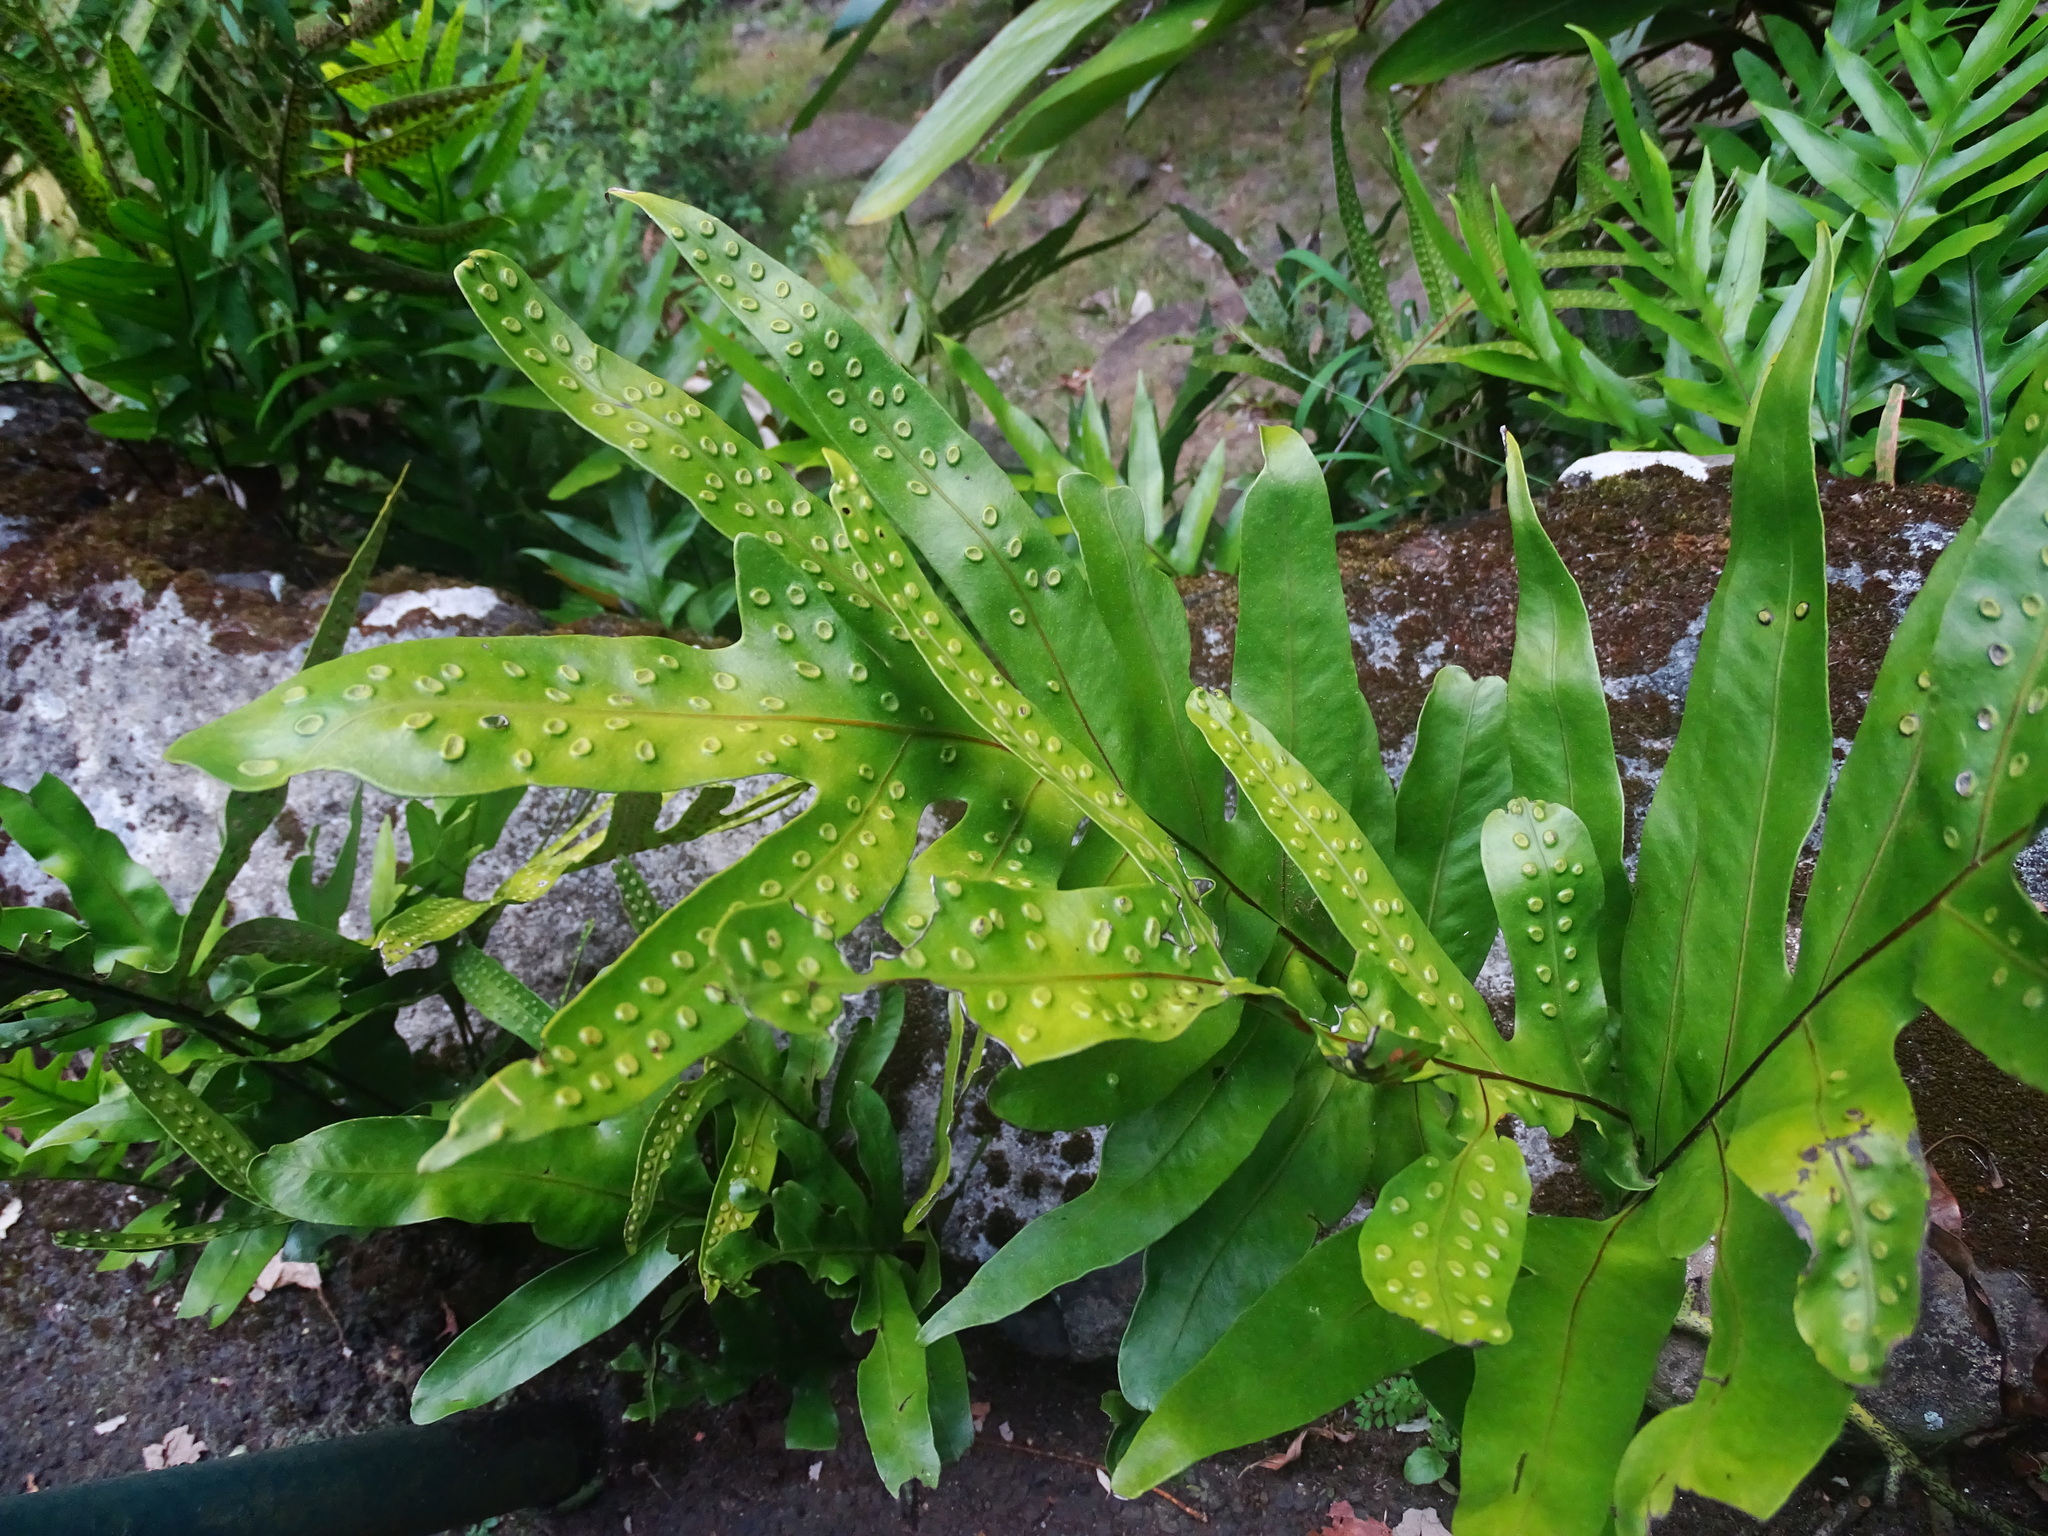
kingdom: Plantae
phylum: Tracheophyta
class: Polypodiopsida
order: Polypodiales
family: Polypodiaceae
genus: Microsorum
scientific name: Microsorum grossum
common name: Musk fern
